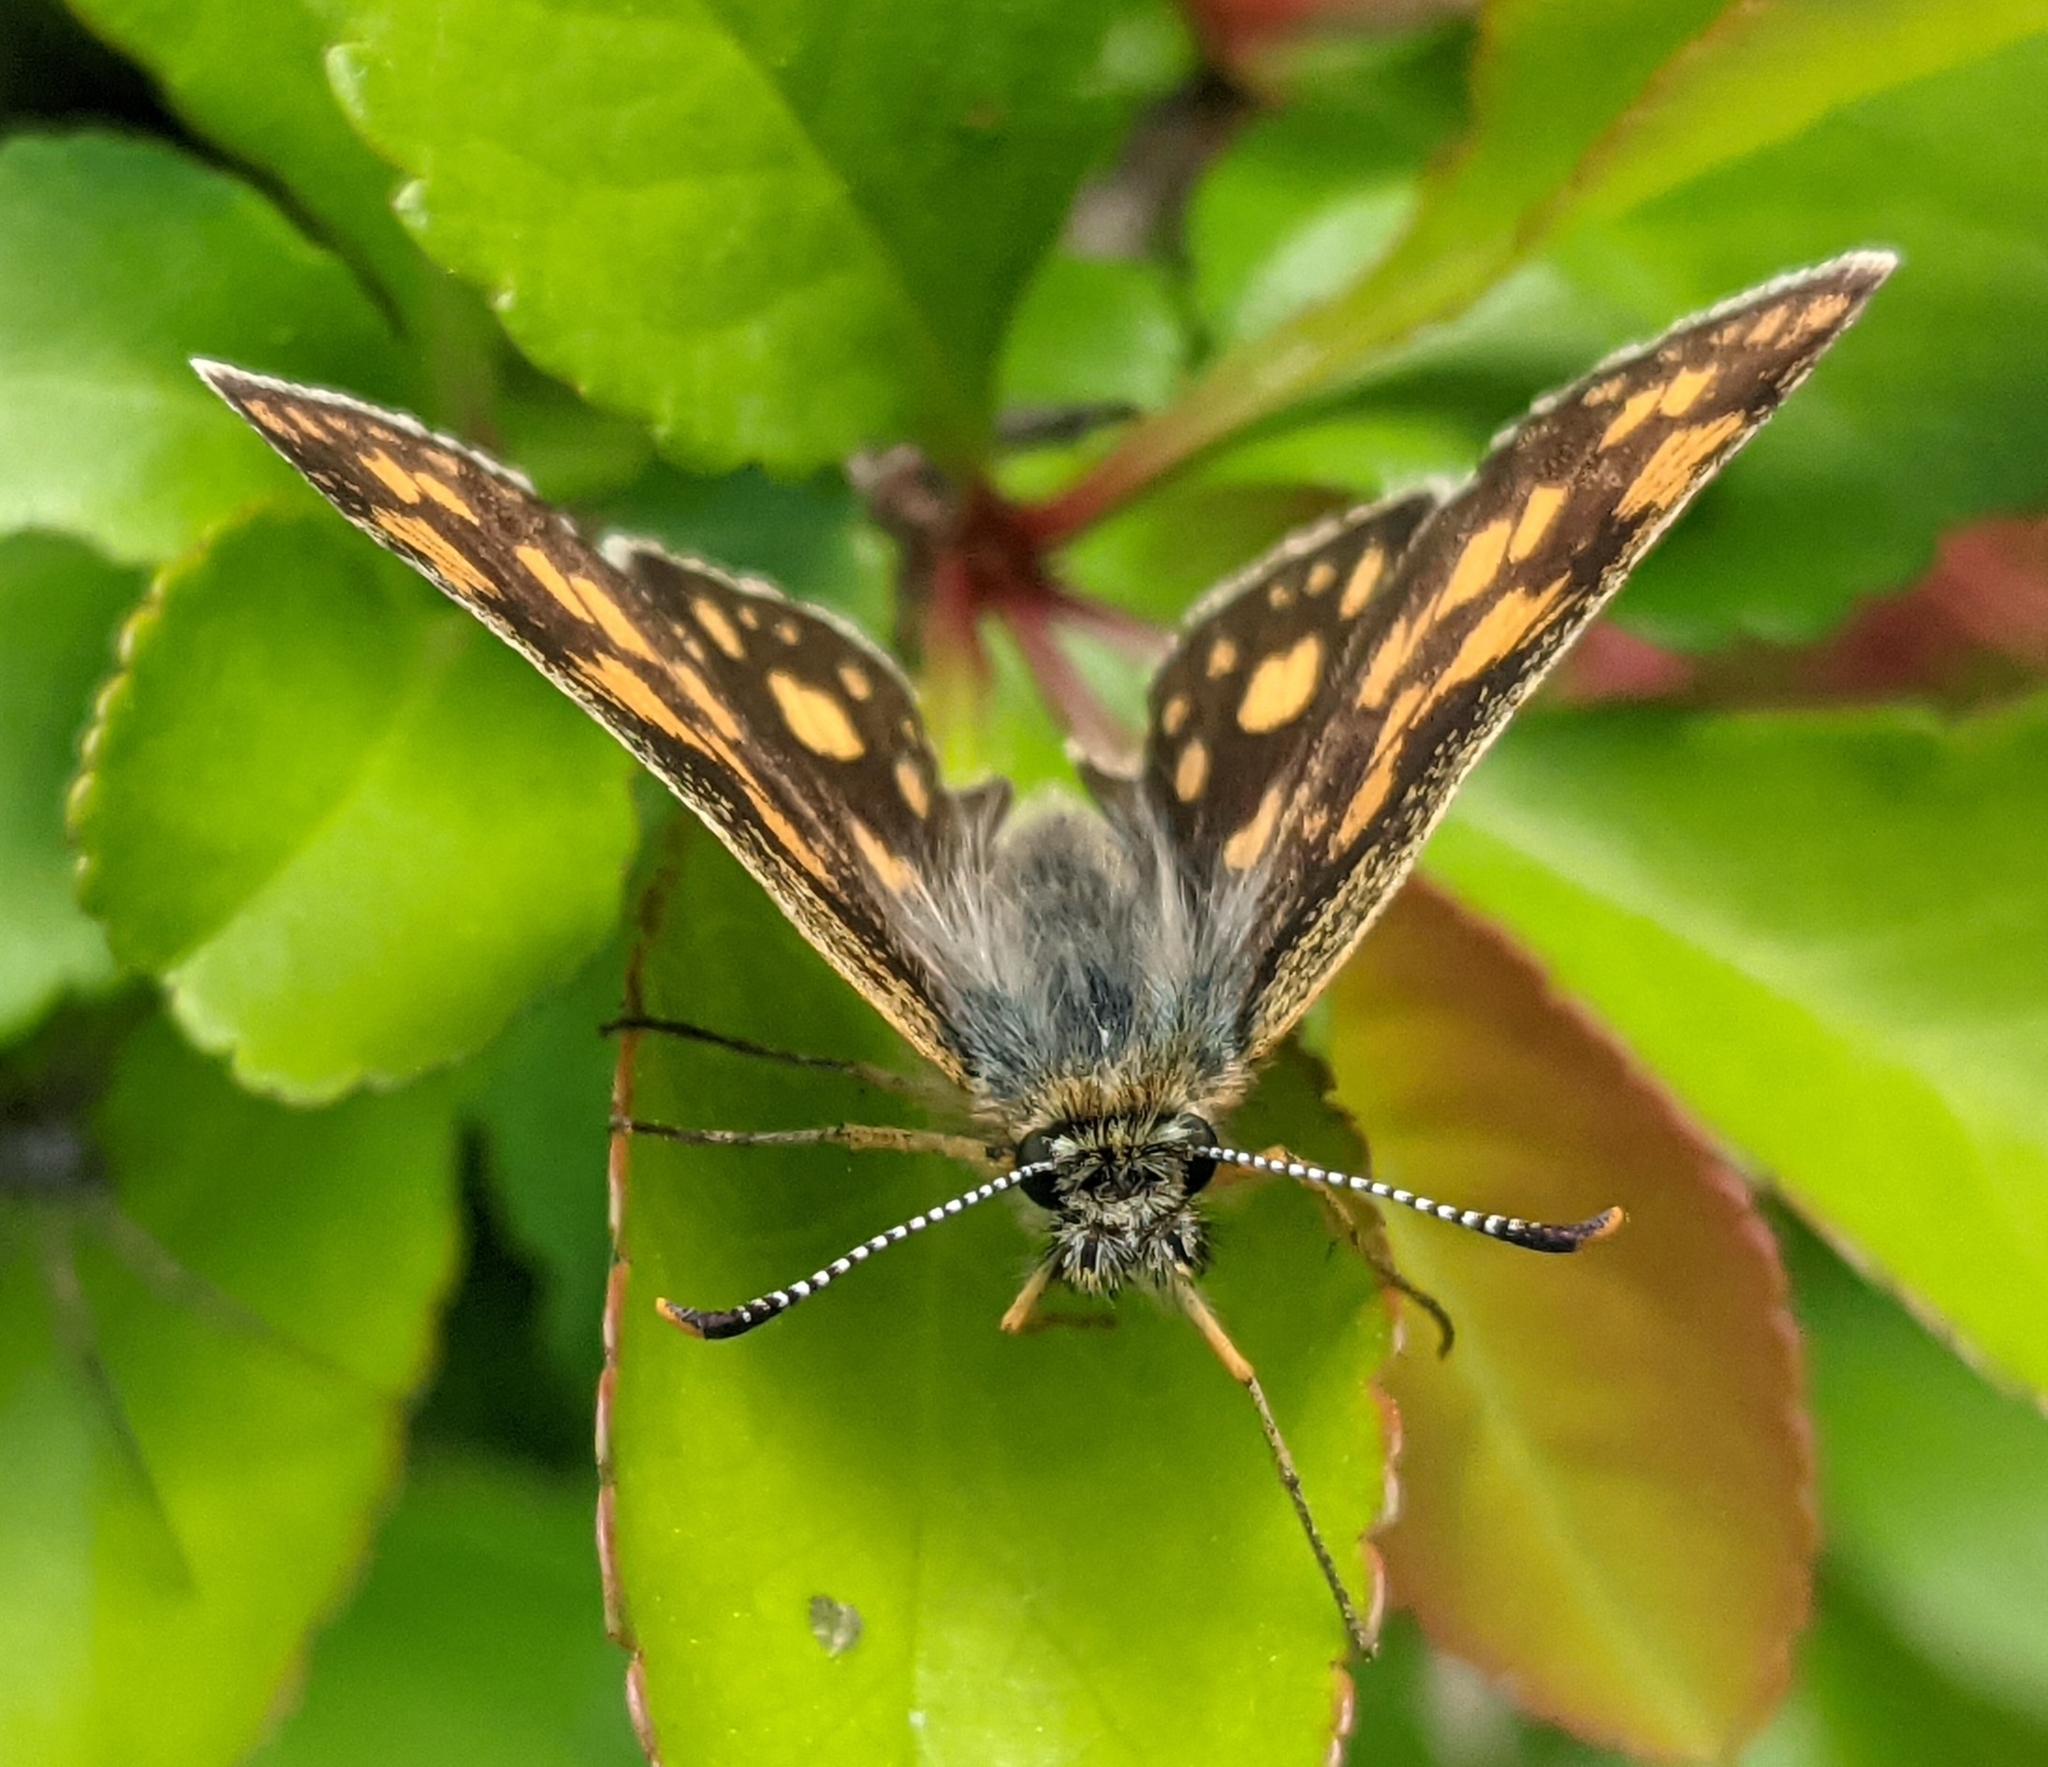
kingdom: Animalia
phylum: Arthropoda
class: Insecta
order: Lepidoptera
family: Hesperiidae
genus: Carterocephalus
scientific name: Carterocephalus palaemon
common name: Chequered skipper
